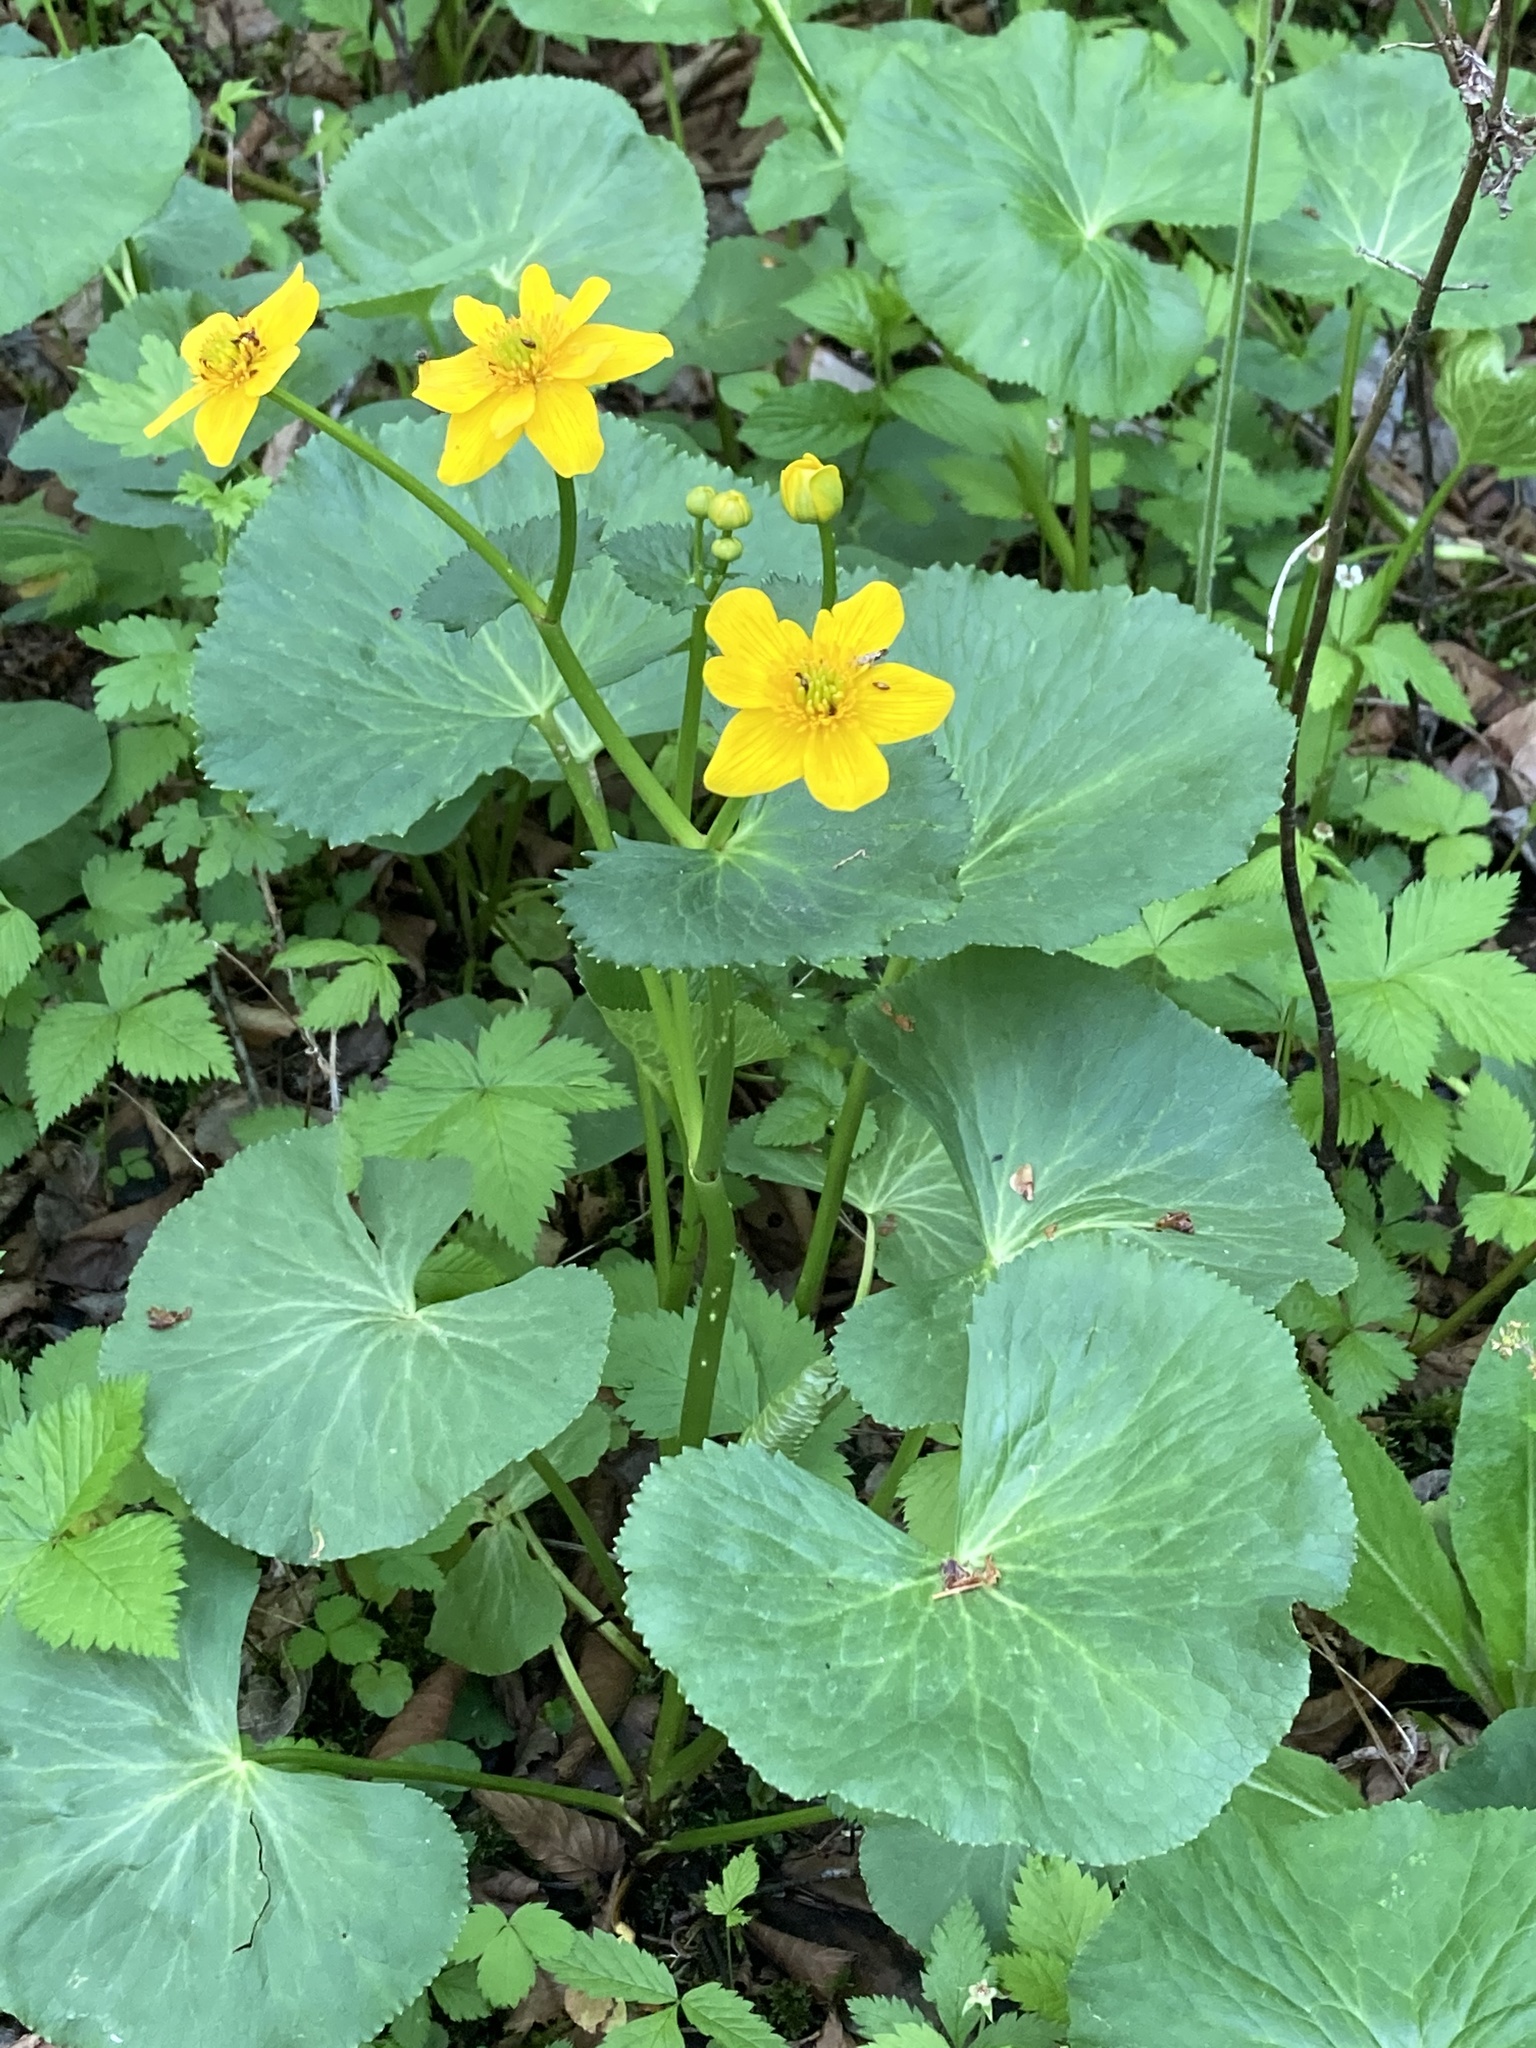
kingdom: Plantae
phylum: Tracheophyta
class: Magnoliopsida
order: Ranunculales
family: Ranunculaceae
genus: Caltha
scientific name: Caltha palustris
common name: Marsh marigold
